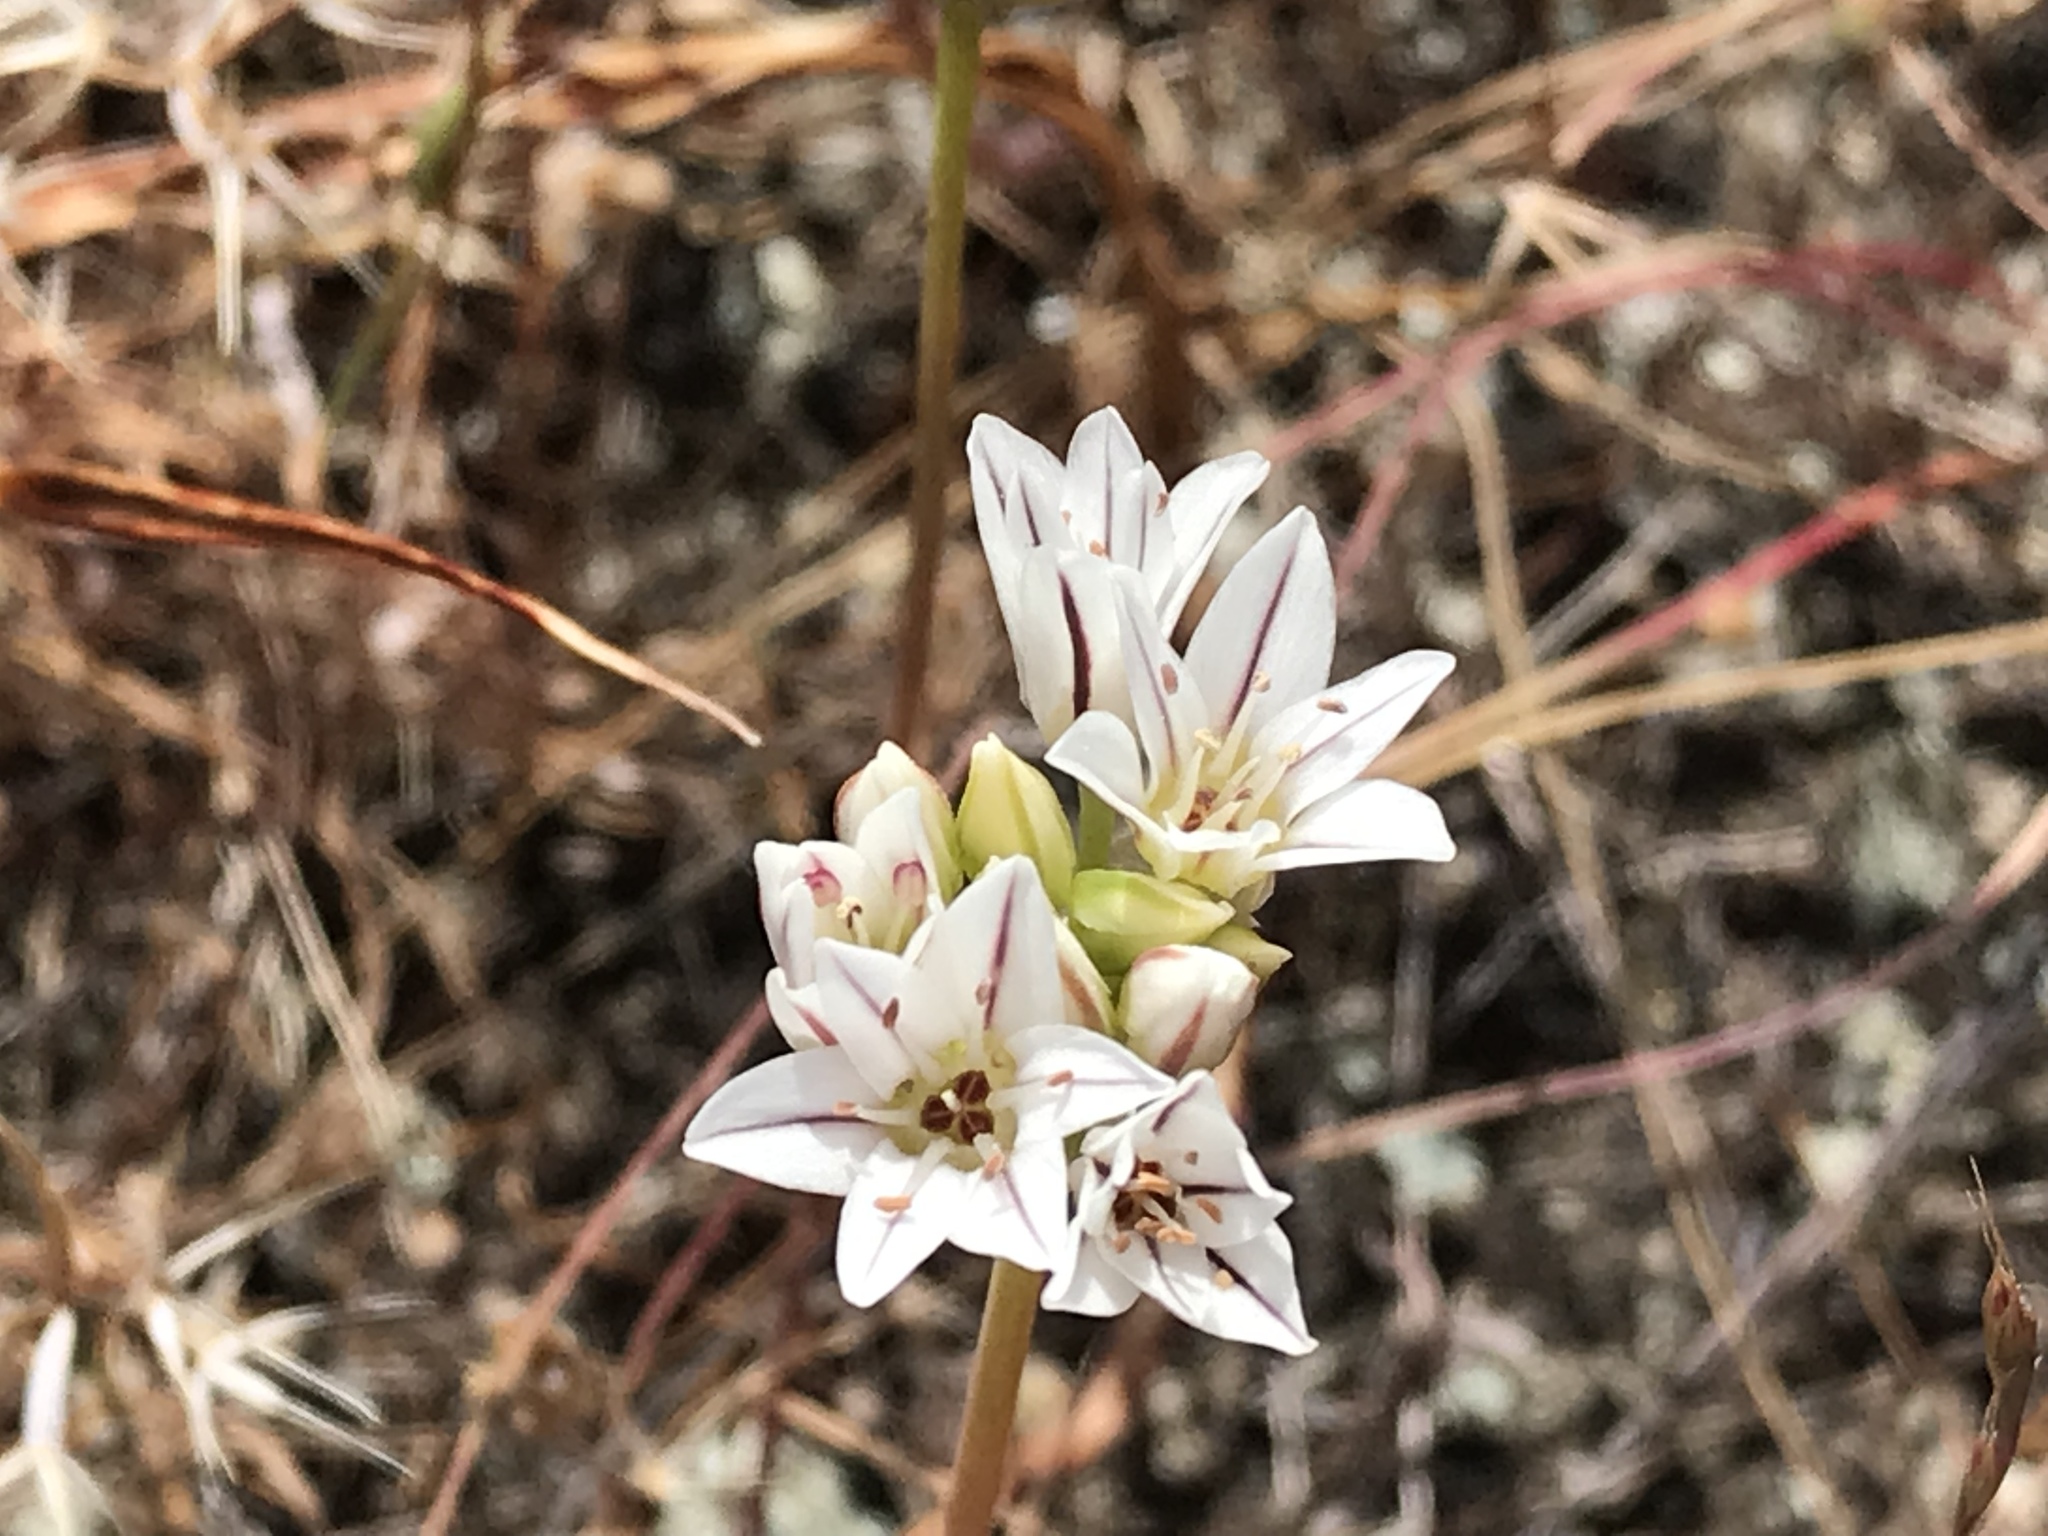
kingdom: Plantae
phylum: Tracheophyta
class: Liliopsida
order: Asparagales
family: Amaryllidaceae
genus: Allium
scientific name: Allium lacunosum
